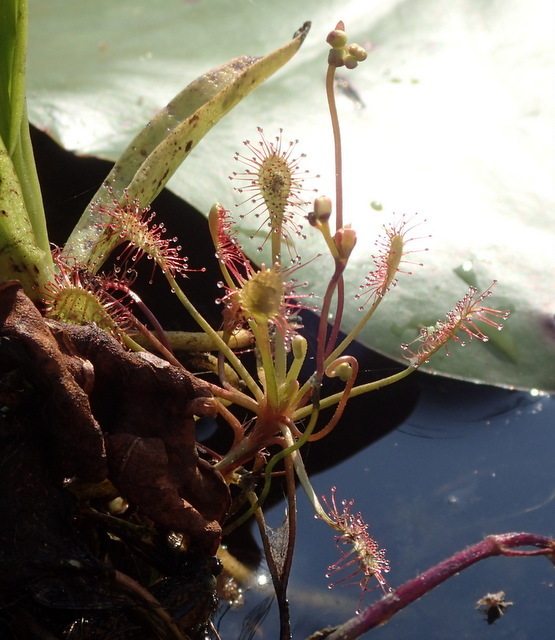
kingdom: Plantae
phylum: Tracheophyta
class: Magnoliopsida
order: Caryophyllales
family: Droseraceae
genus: Drosera
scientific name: Drosera intermedia
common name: Oblong-leaved sundew
